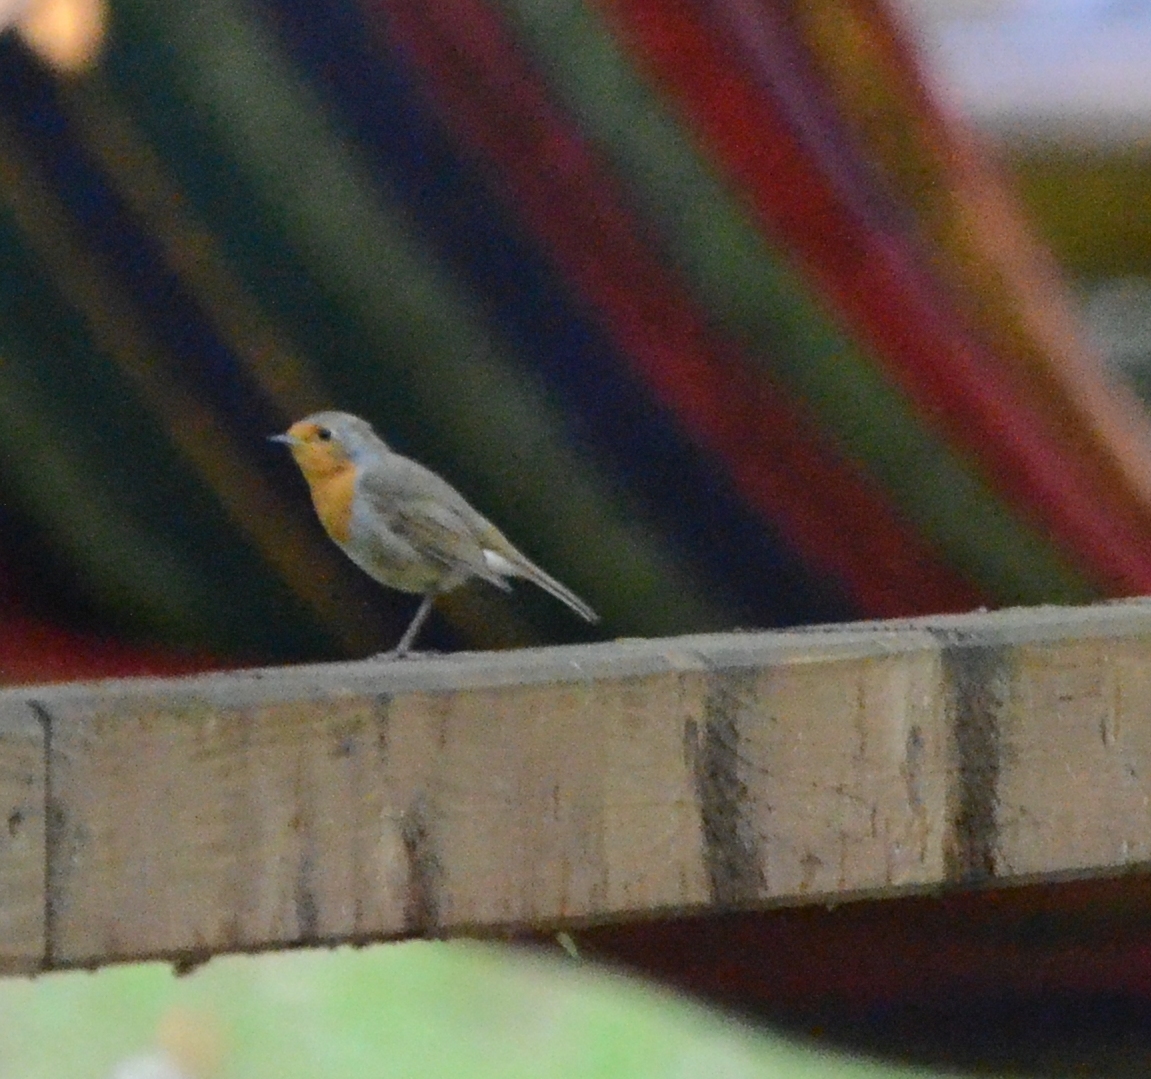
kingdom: Animalia
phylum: Chordata
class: Aves
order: Passeriformes
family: Muscicapidae
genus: Erithacus
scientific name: Erithacus rubecula
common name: European robin
